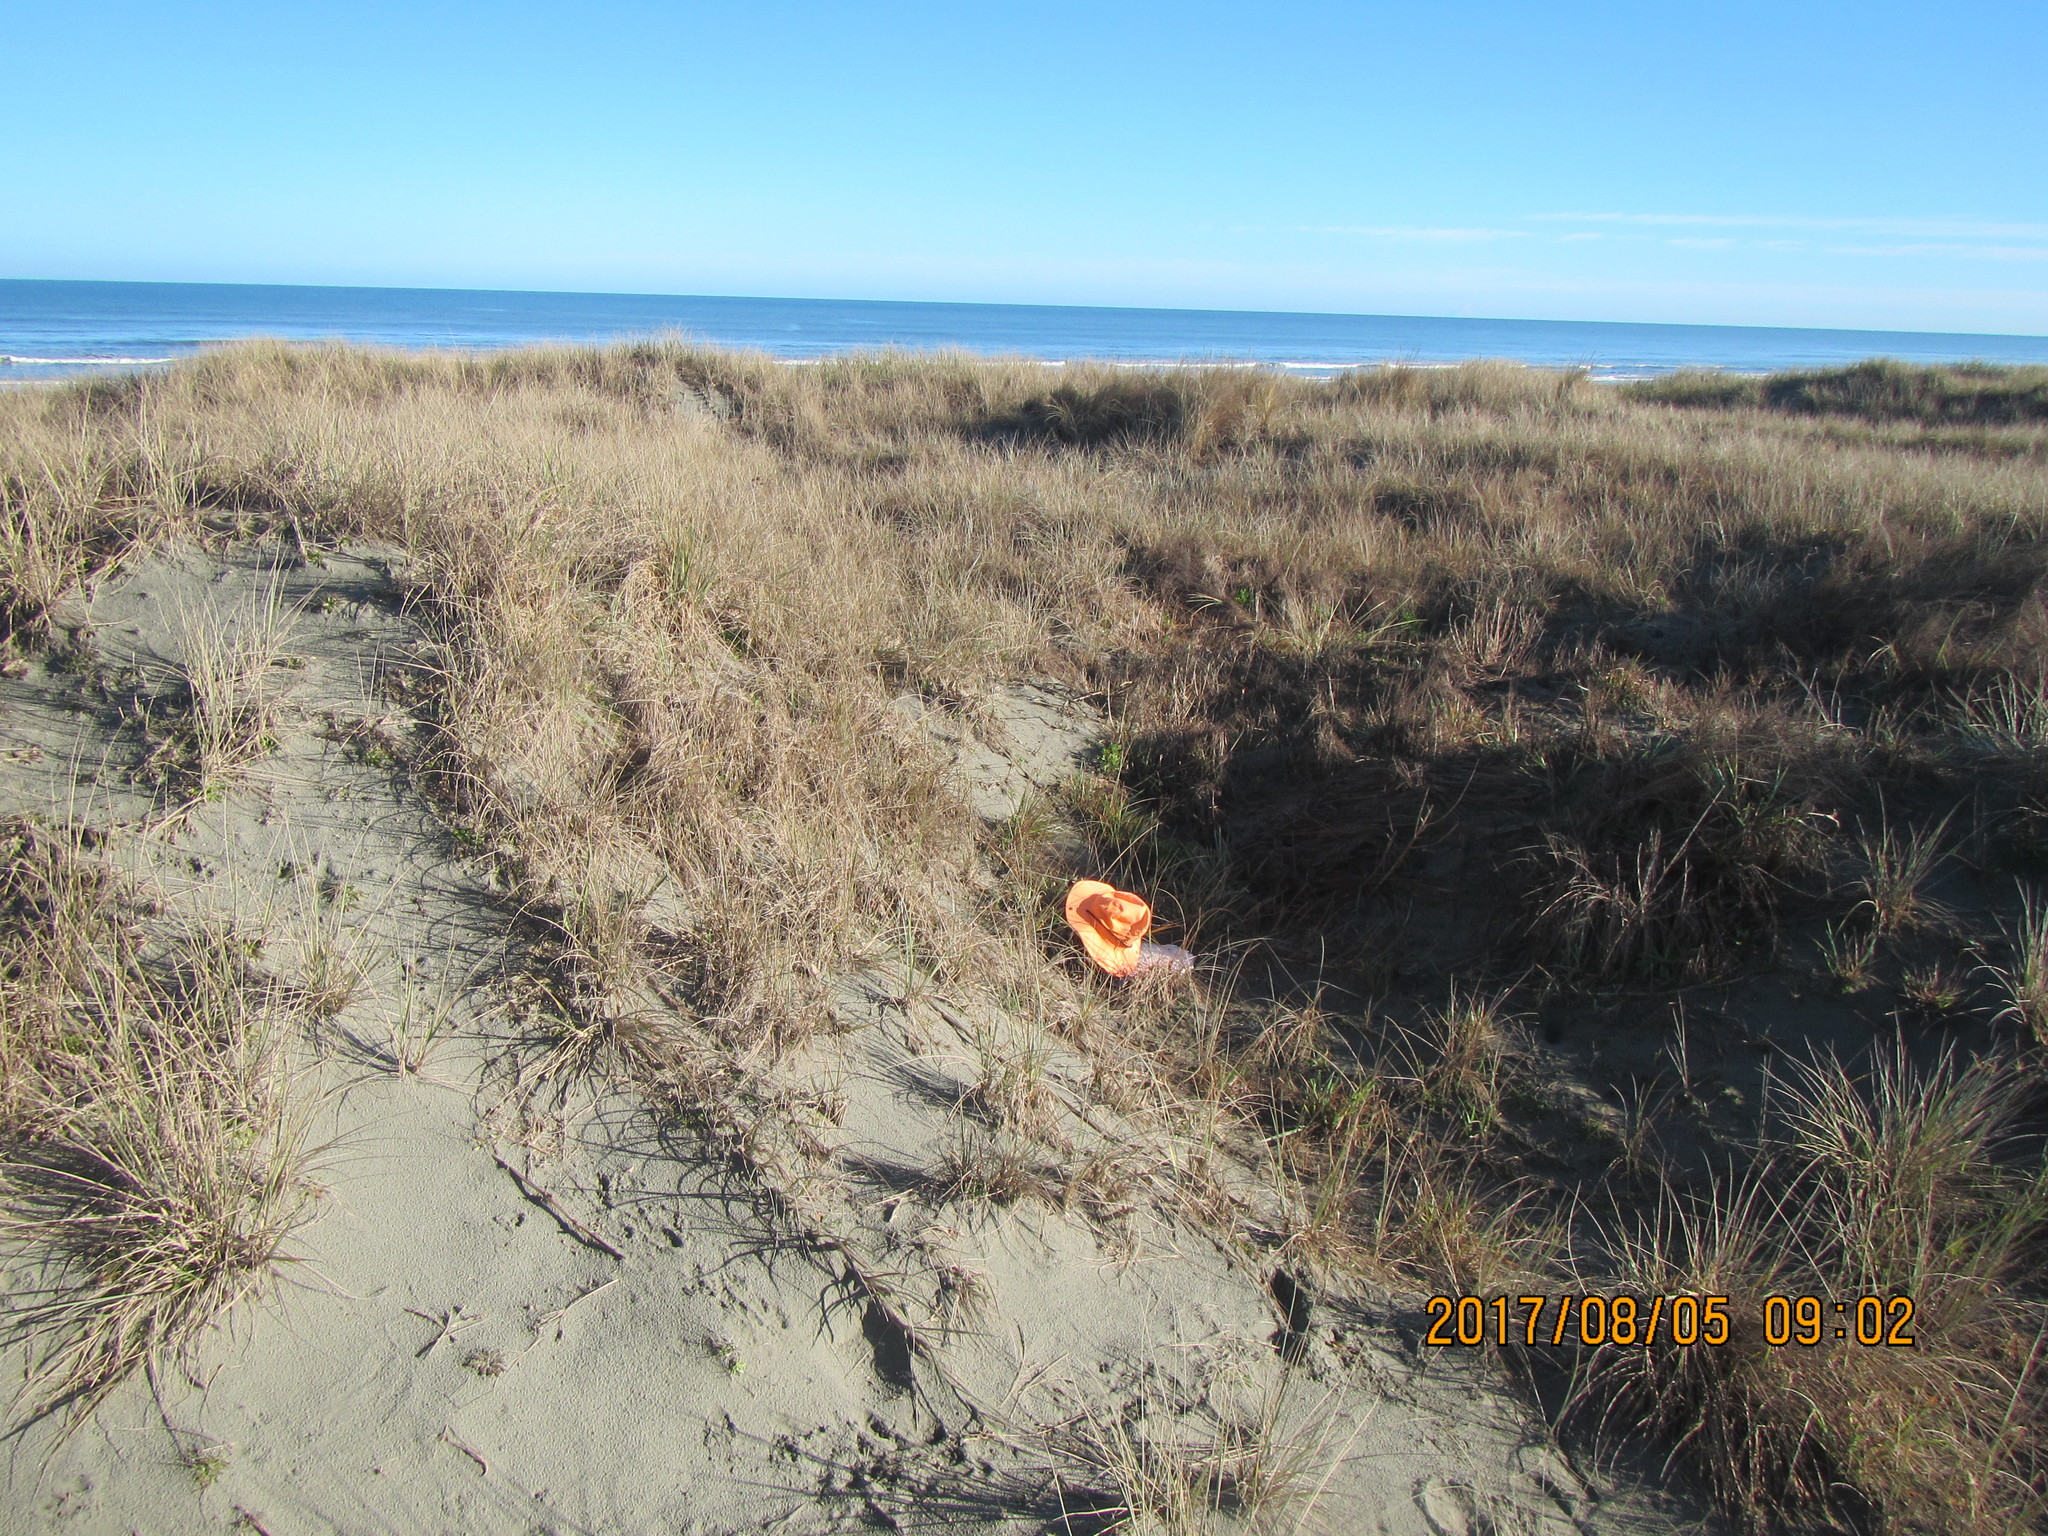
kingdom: Animalia
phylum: Arthropoda
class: Insecta
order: Dermaptera
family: Forficulidae
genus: Forficula
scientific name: Forficula
